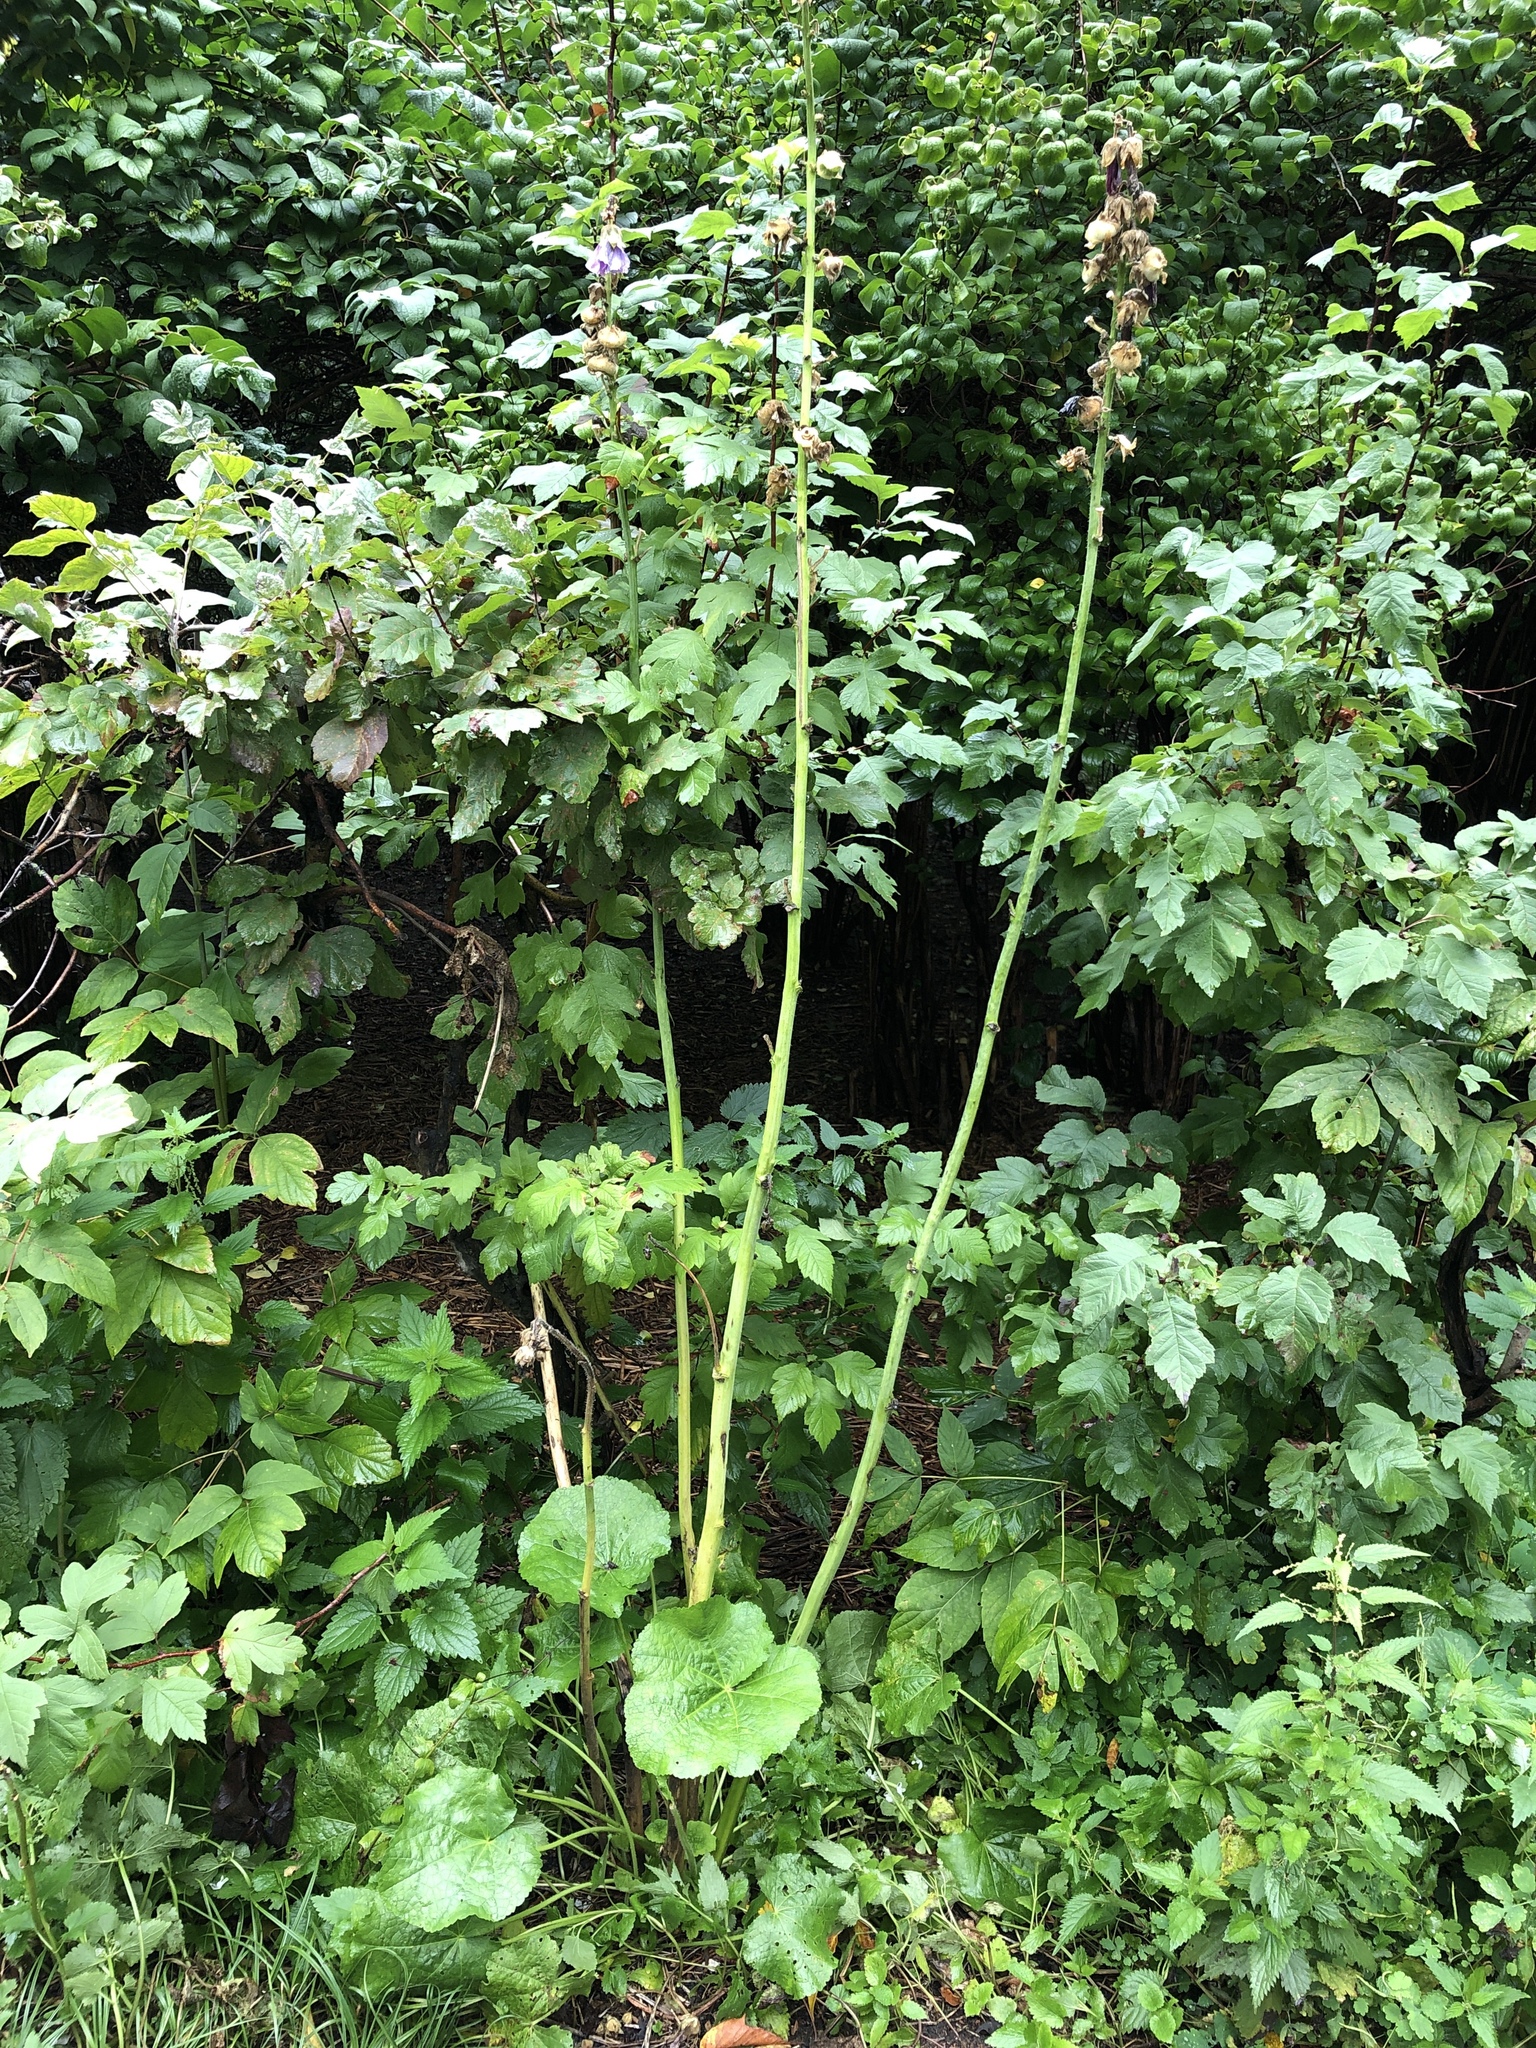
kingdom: Plantae
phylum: Tracheophyta
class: Magnoliopsida
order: Malvales
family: Malvaceae
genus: Alcea
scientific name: Alcea rosea
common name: Hollyhock
